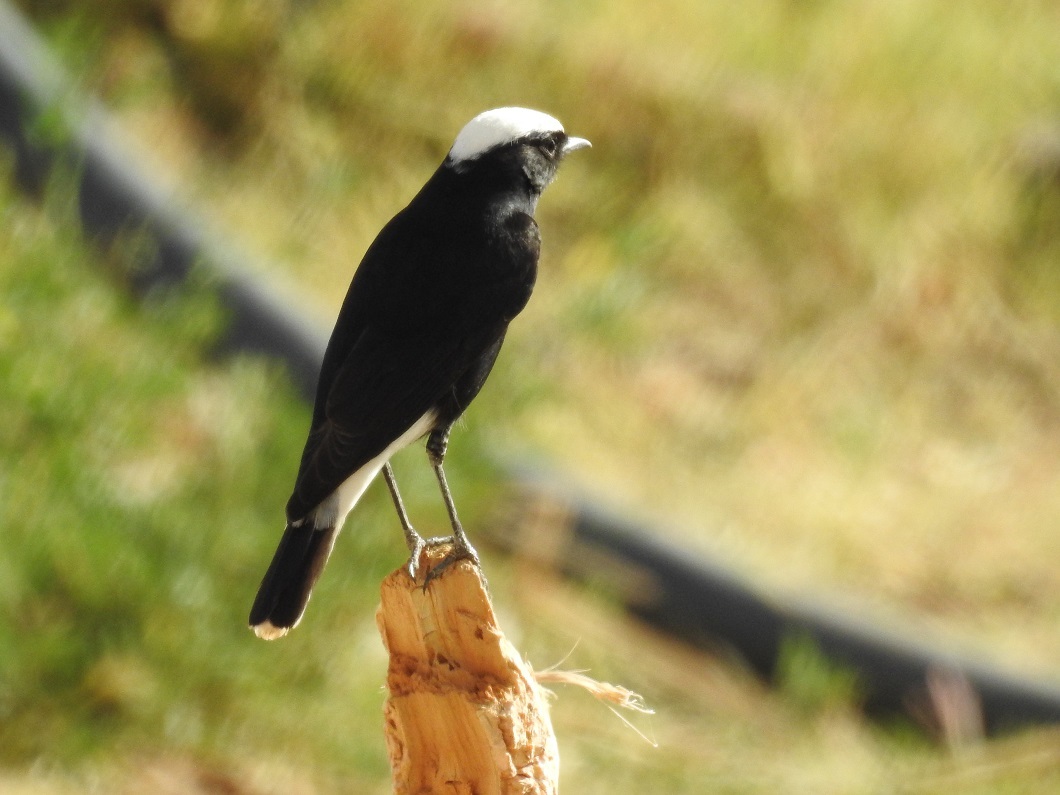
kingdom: Animalia
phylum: Chordata
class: Aves
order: Passeriformes
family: Muscicapidae
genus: Oenanthe
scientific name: Oenanthe leucopyga
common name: White-crowned wheatear
